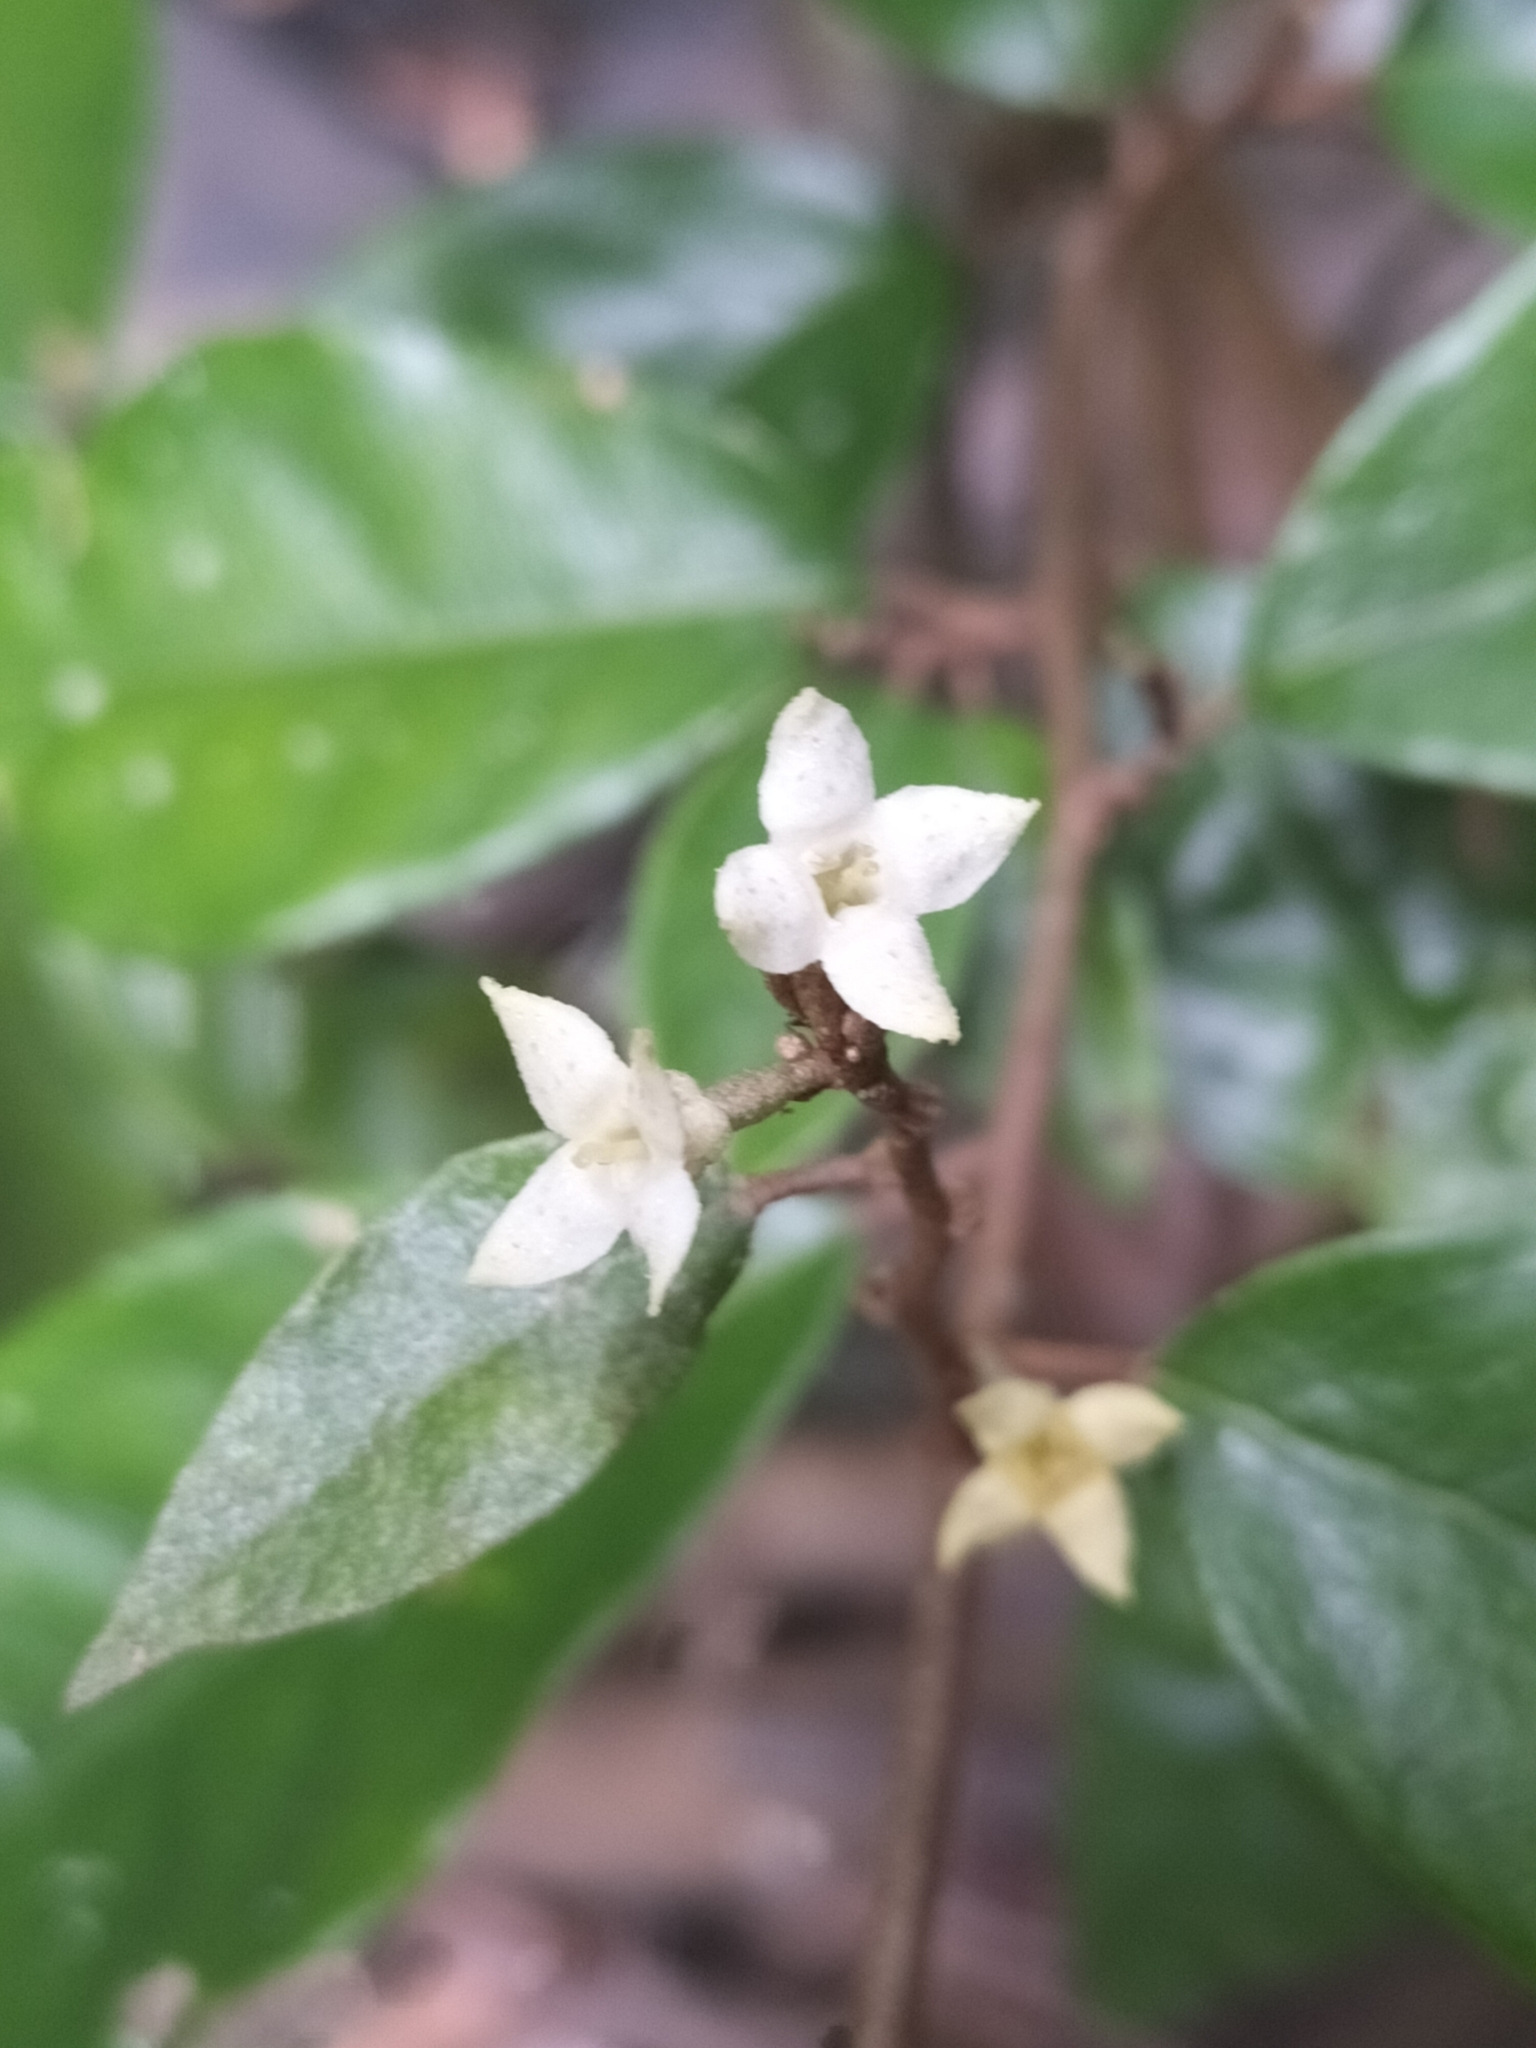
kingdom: Plantae
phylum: Tracheophyta
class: Magnoliopsida
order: Rosales
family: Elaeagnaceae
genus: Elaeagnus
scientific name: Elaeagnus triflora
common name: Millaa millaa-vine
